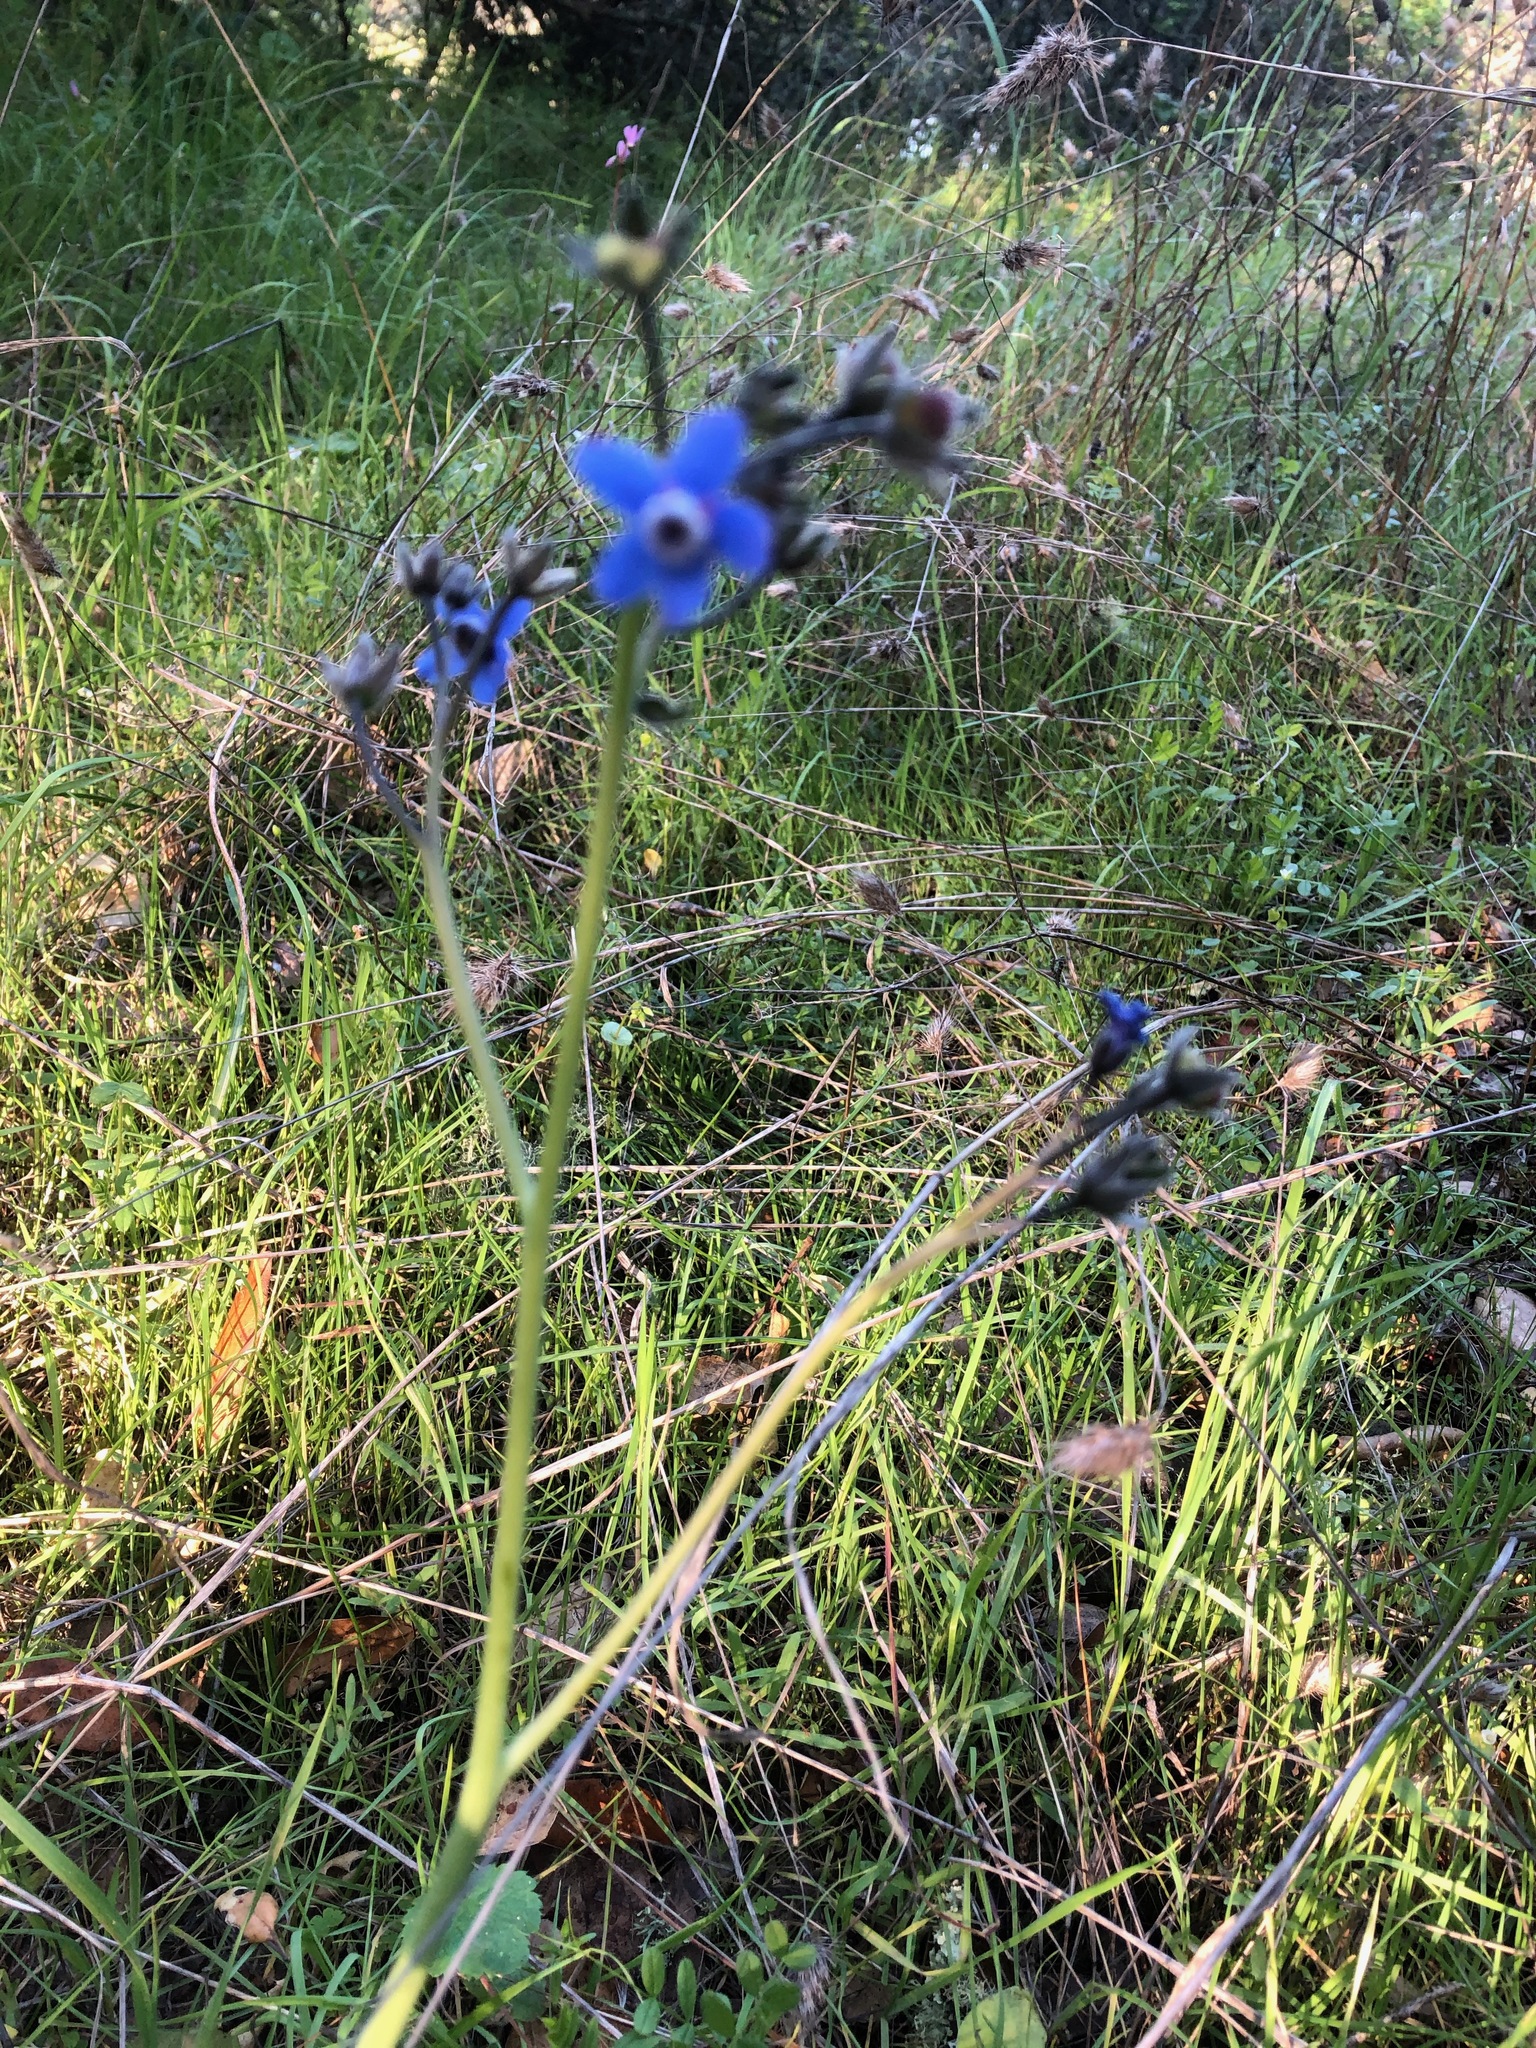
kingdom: Plantae
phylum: Tracheophyta
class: Magnoliopsida
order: Boraginales
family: Boraginaceae
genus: Adelinia
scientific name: Adelinia grande
